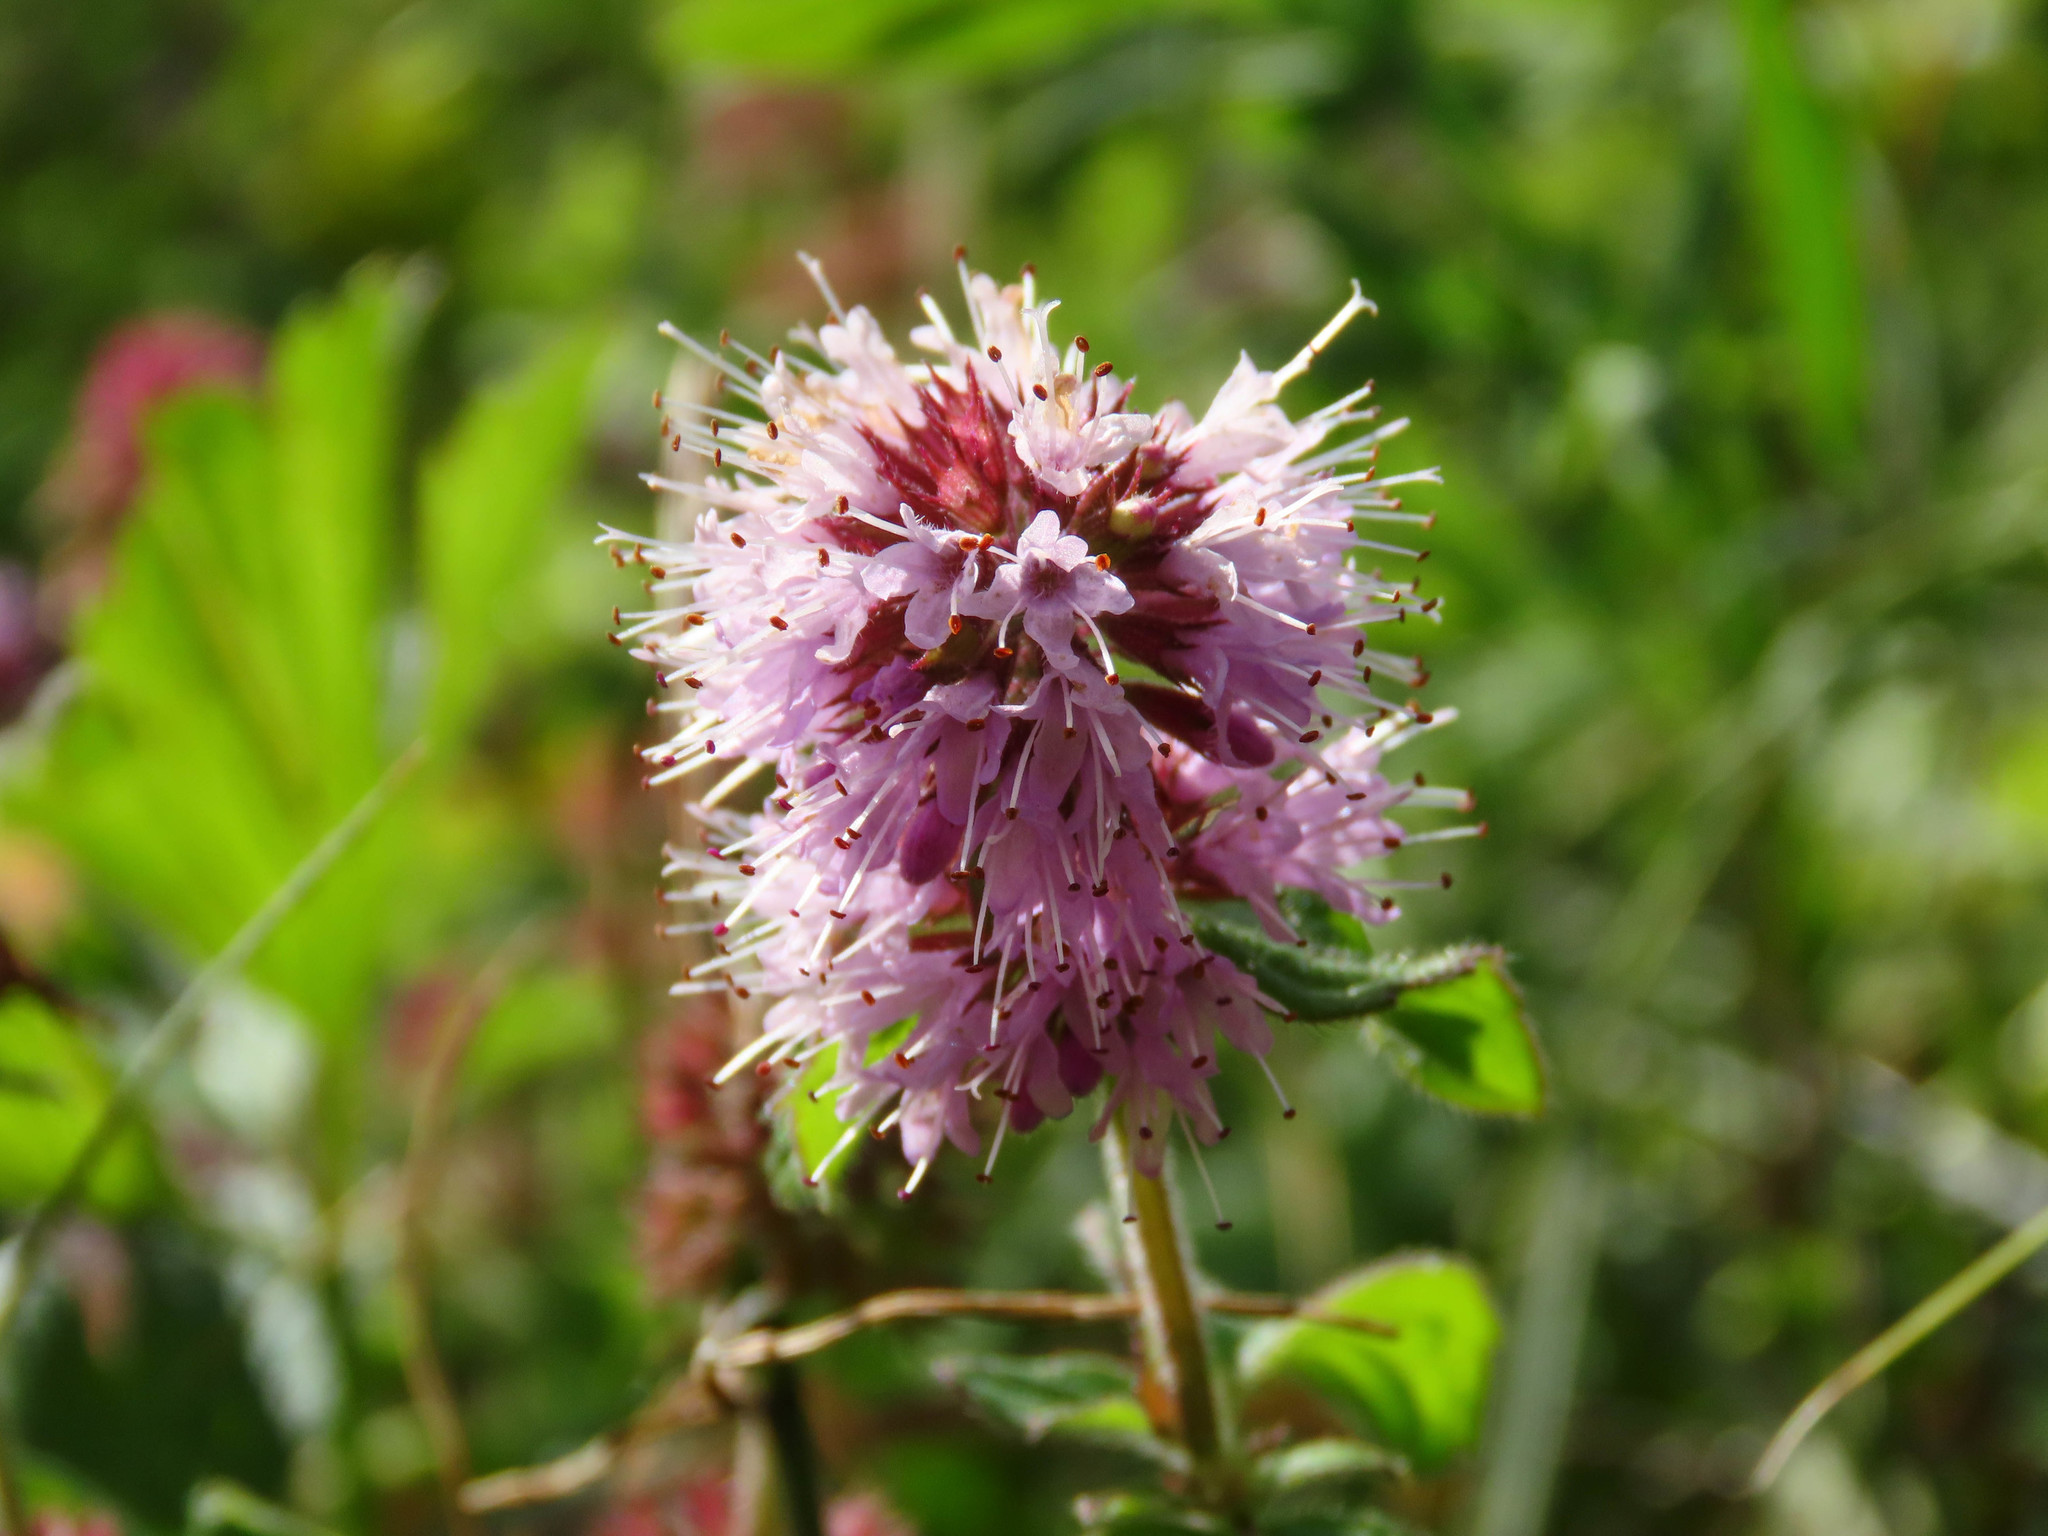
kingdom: Plantae
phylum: Tracheophyta
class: Magnoliopsida
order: Lamiales
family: Lamiaceae
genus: Mentha
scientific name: Mentha aquatica
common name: Water mint
